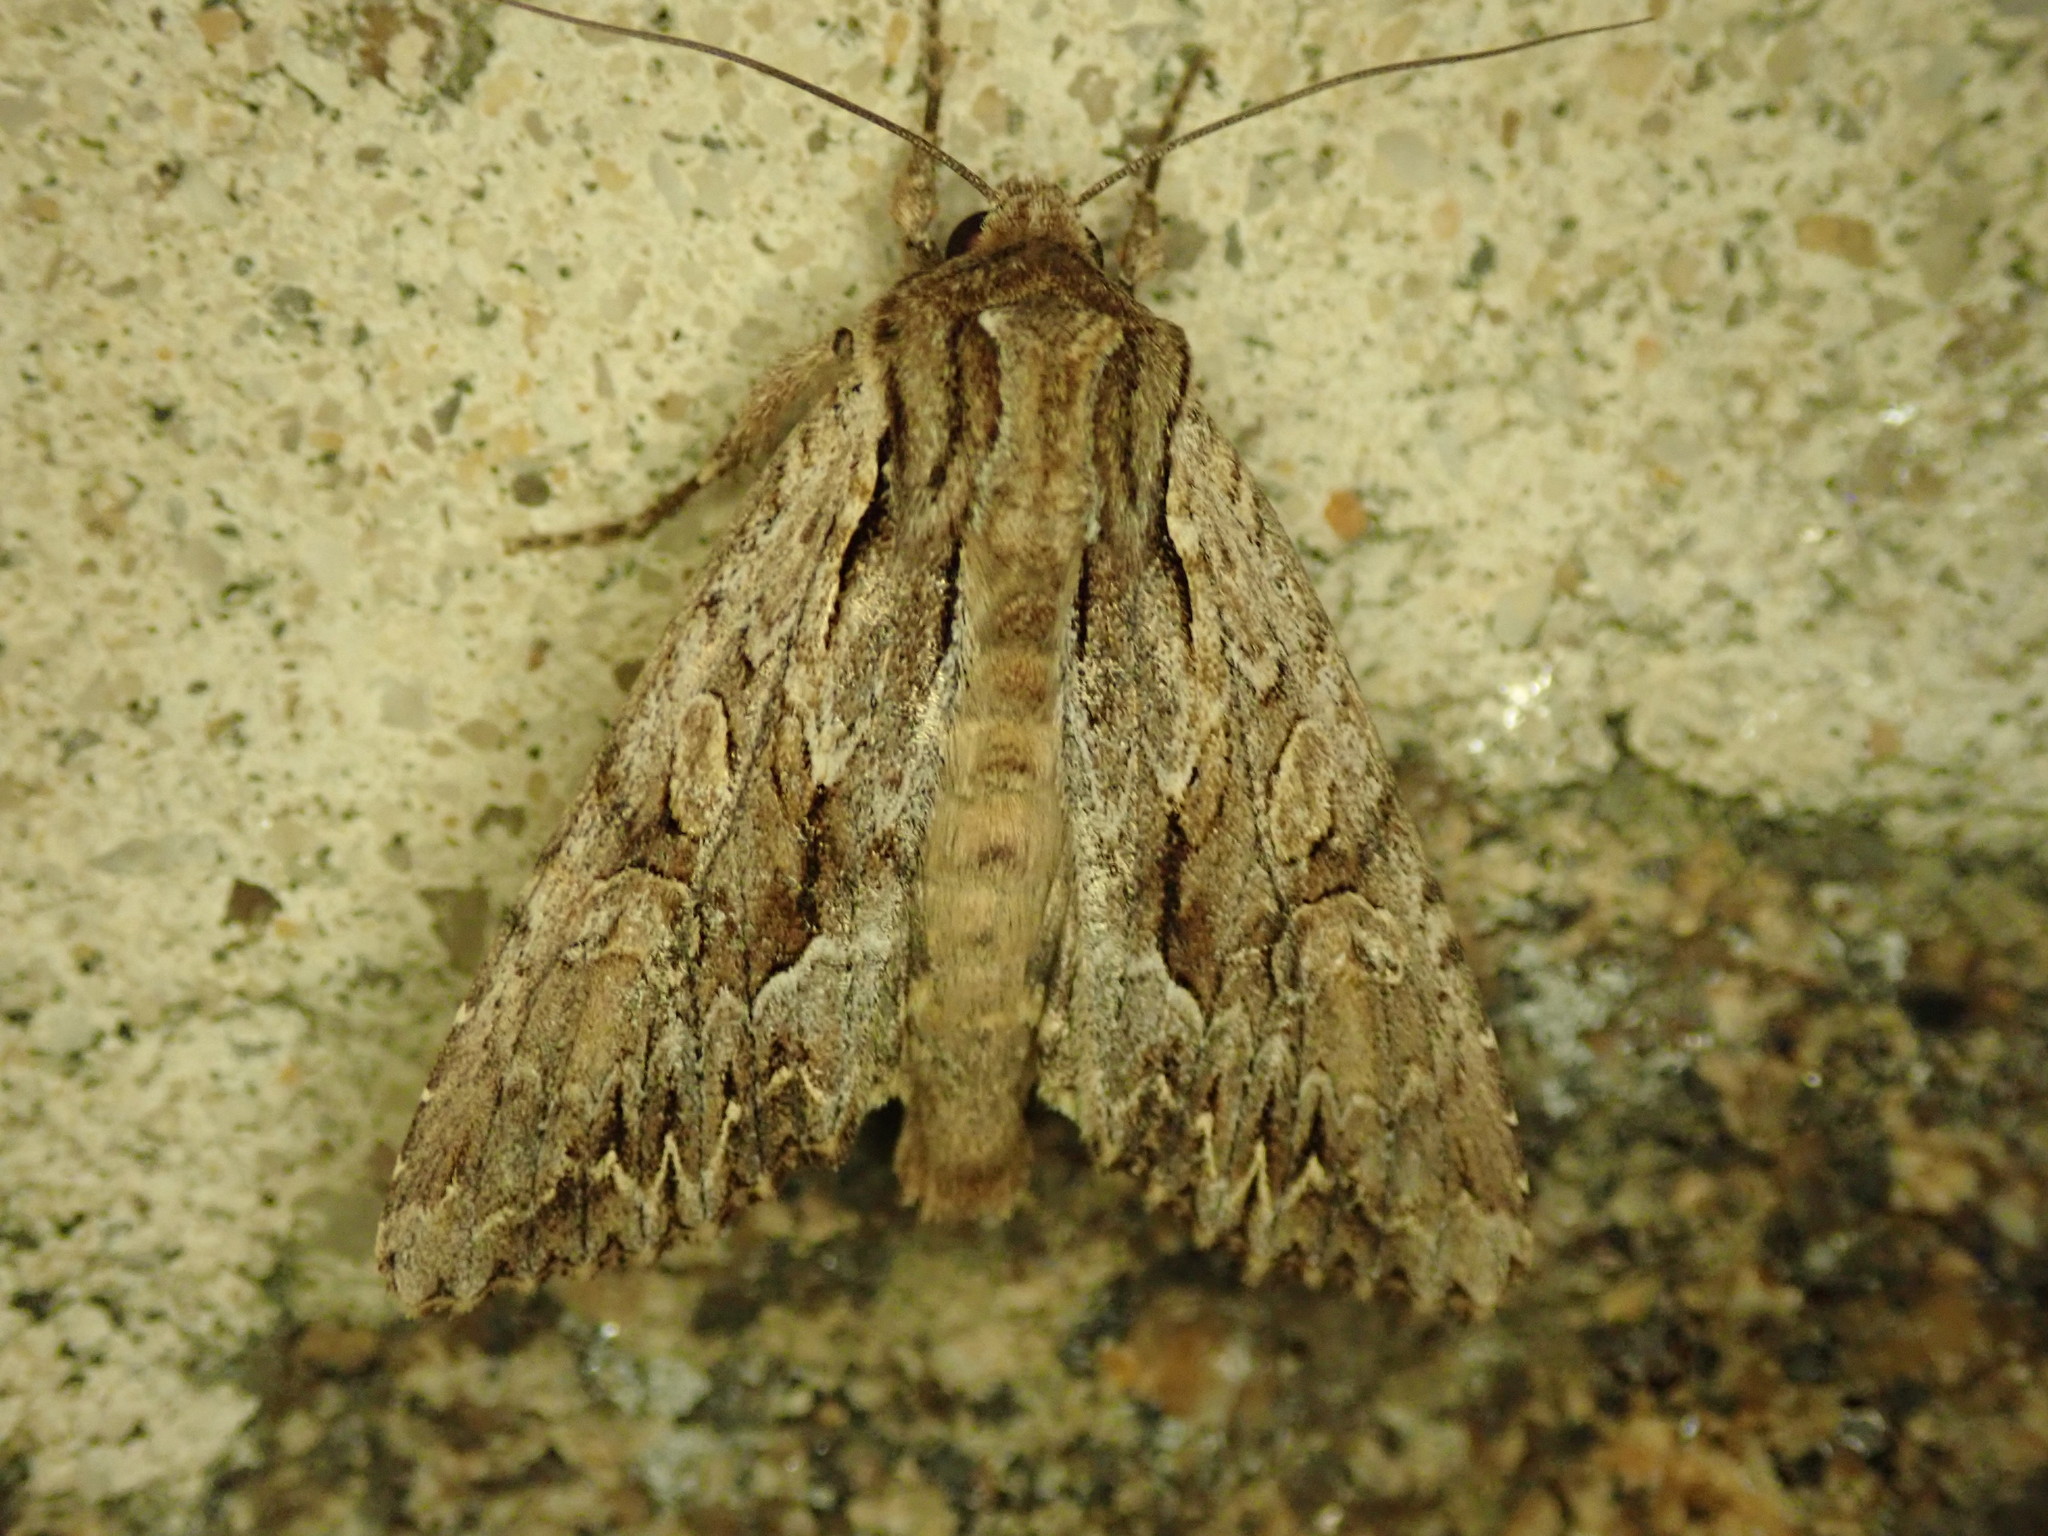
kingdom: Animalia
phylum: Arthropoda
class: Insecta
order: Lepidoptera
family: Noctuidae
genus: Apamea
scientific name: Apamea monoglypha
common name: Dark arches
